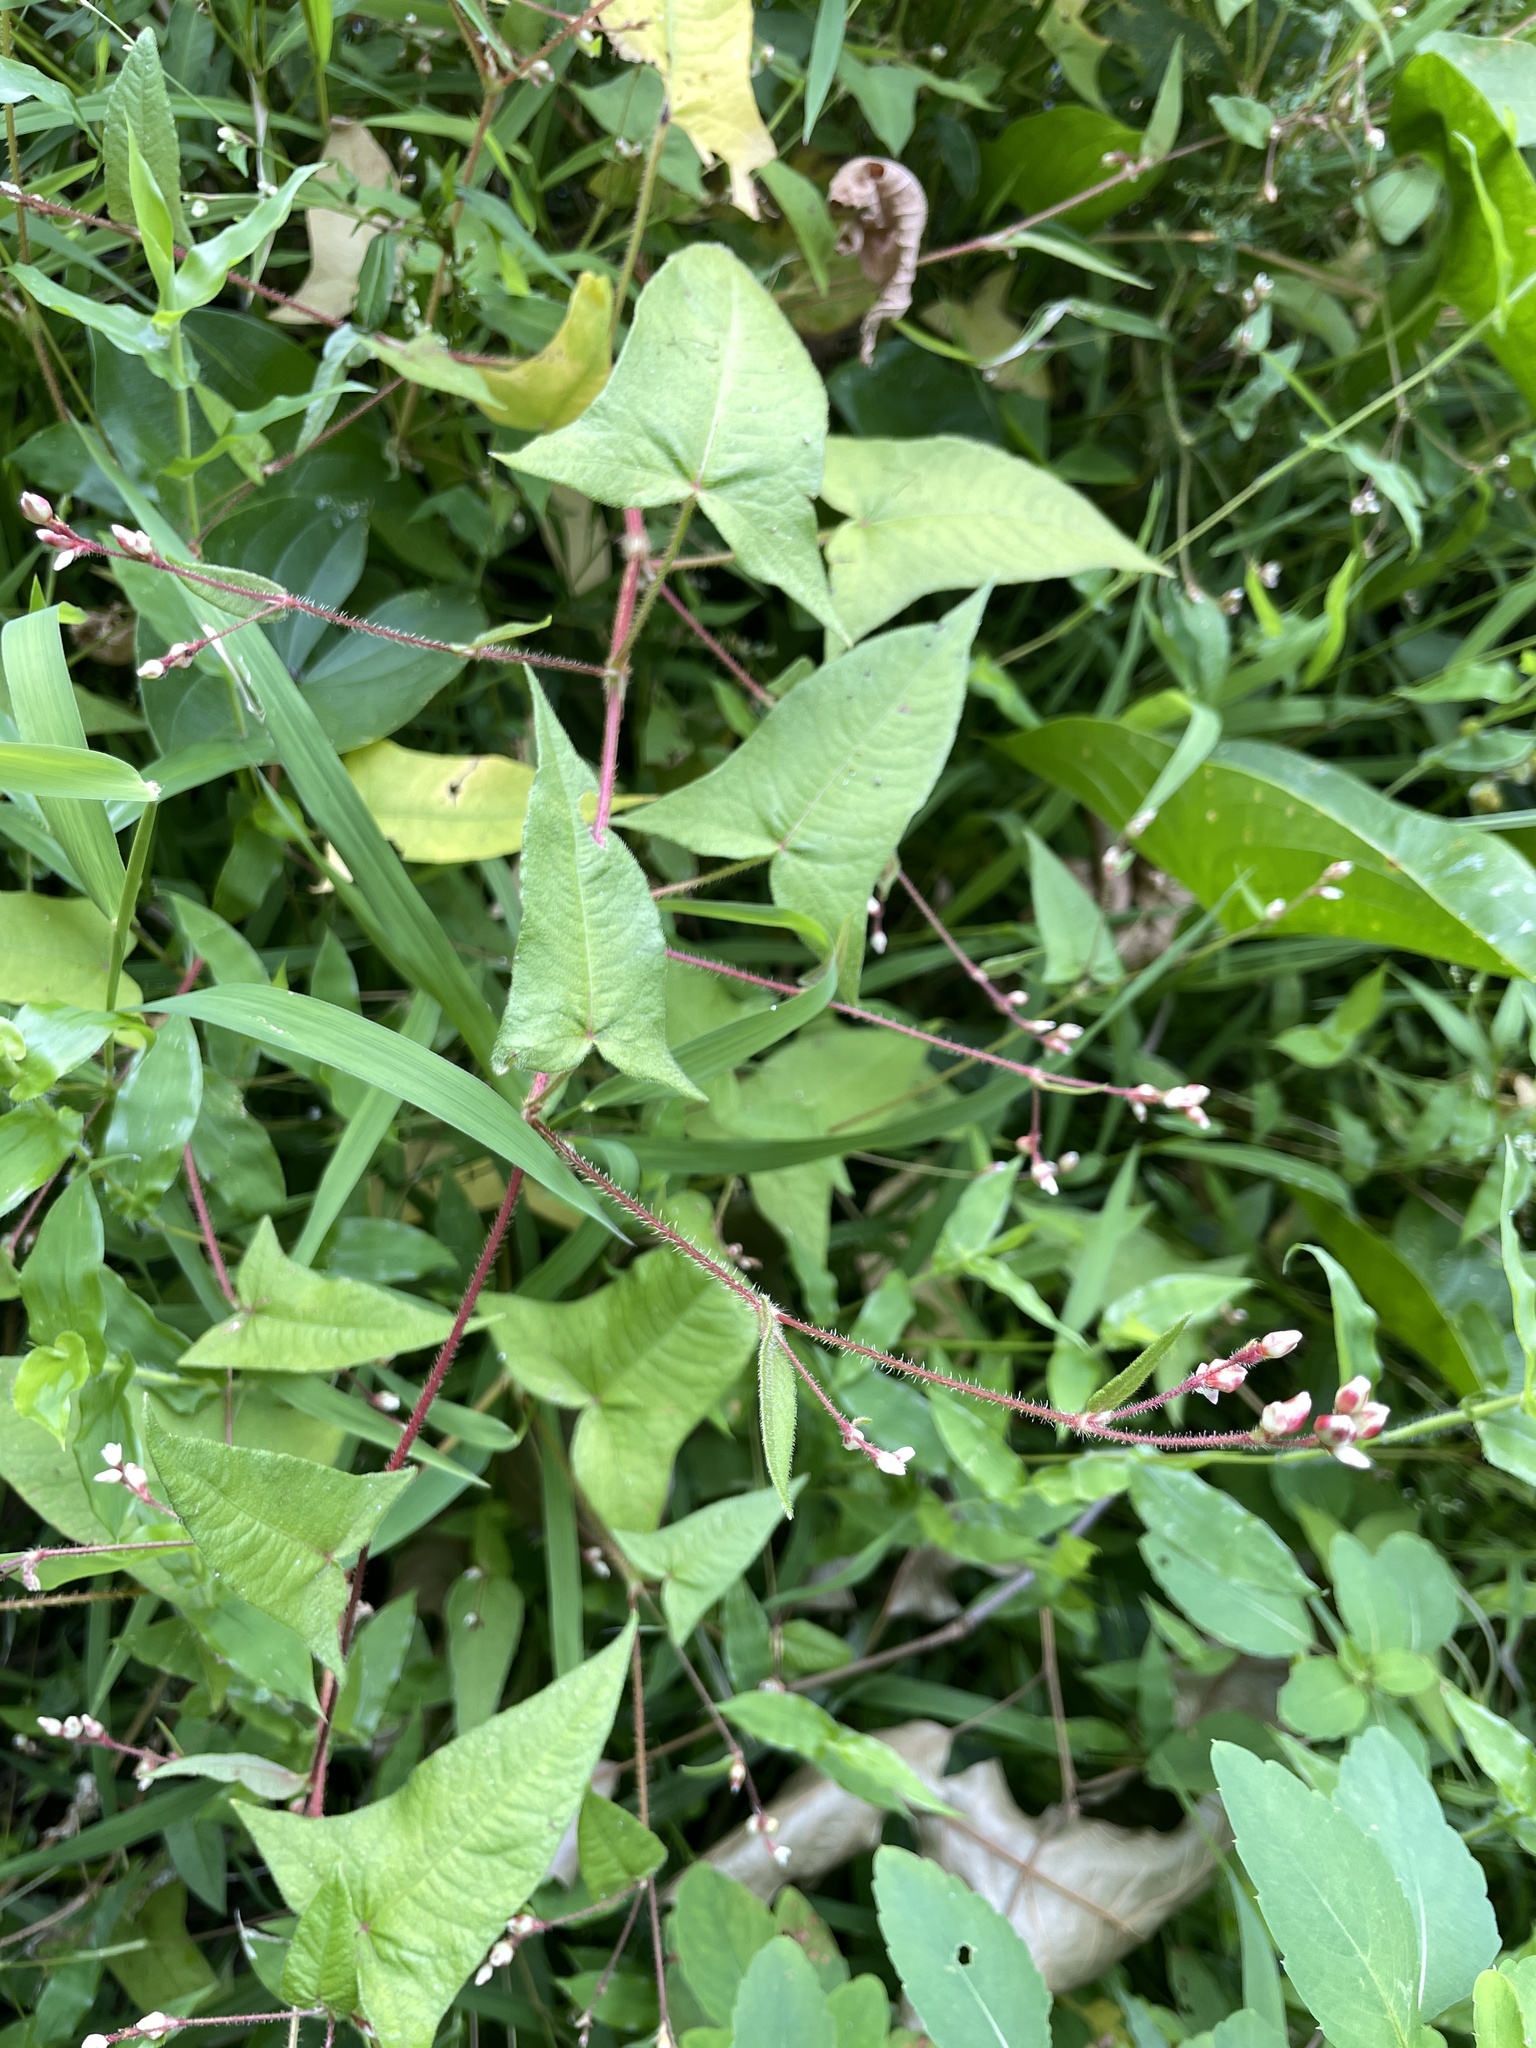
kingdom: Plantae
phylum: Tracheophyta
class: Magnoliopsida
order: Caryophyllales
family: Polygonaceae
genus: Persicaria
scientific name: Persicaria arifolia
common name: Halberd-leaved tear-thumb
